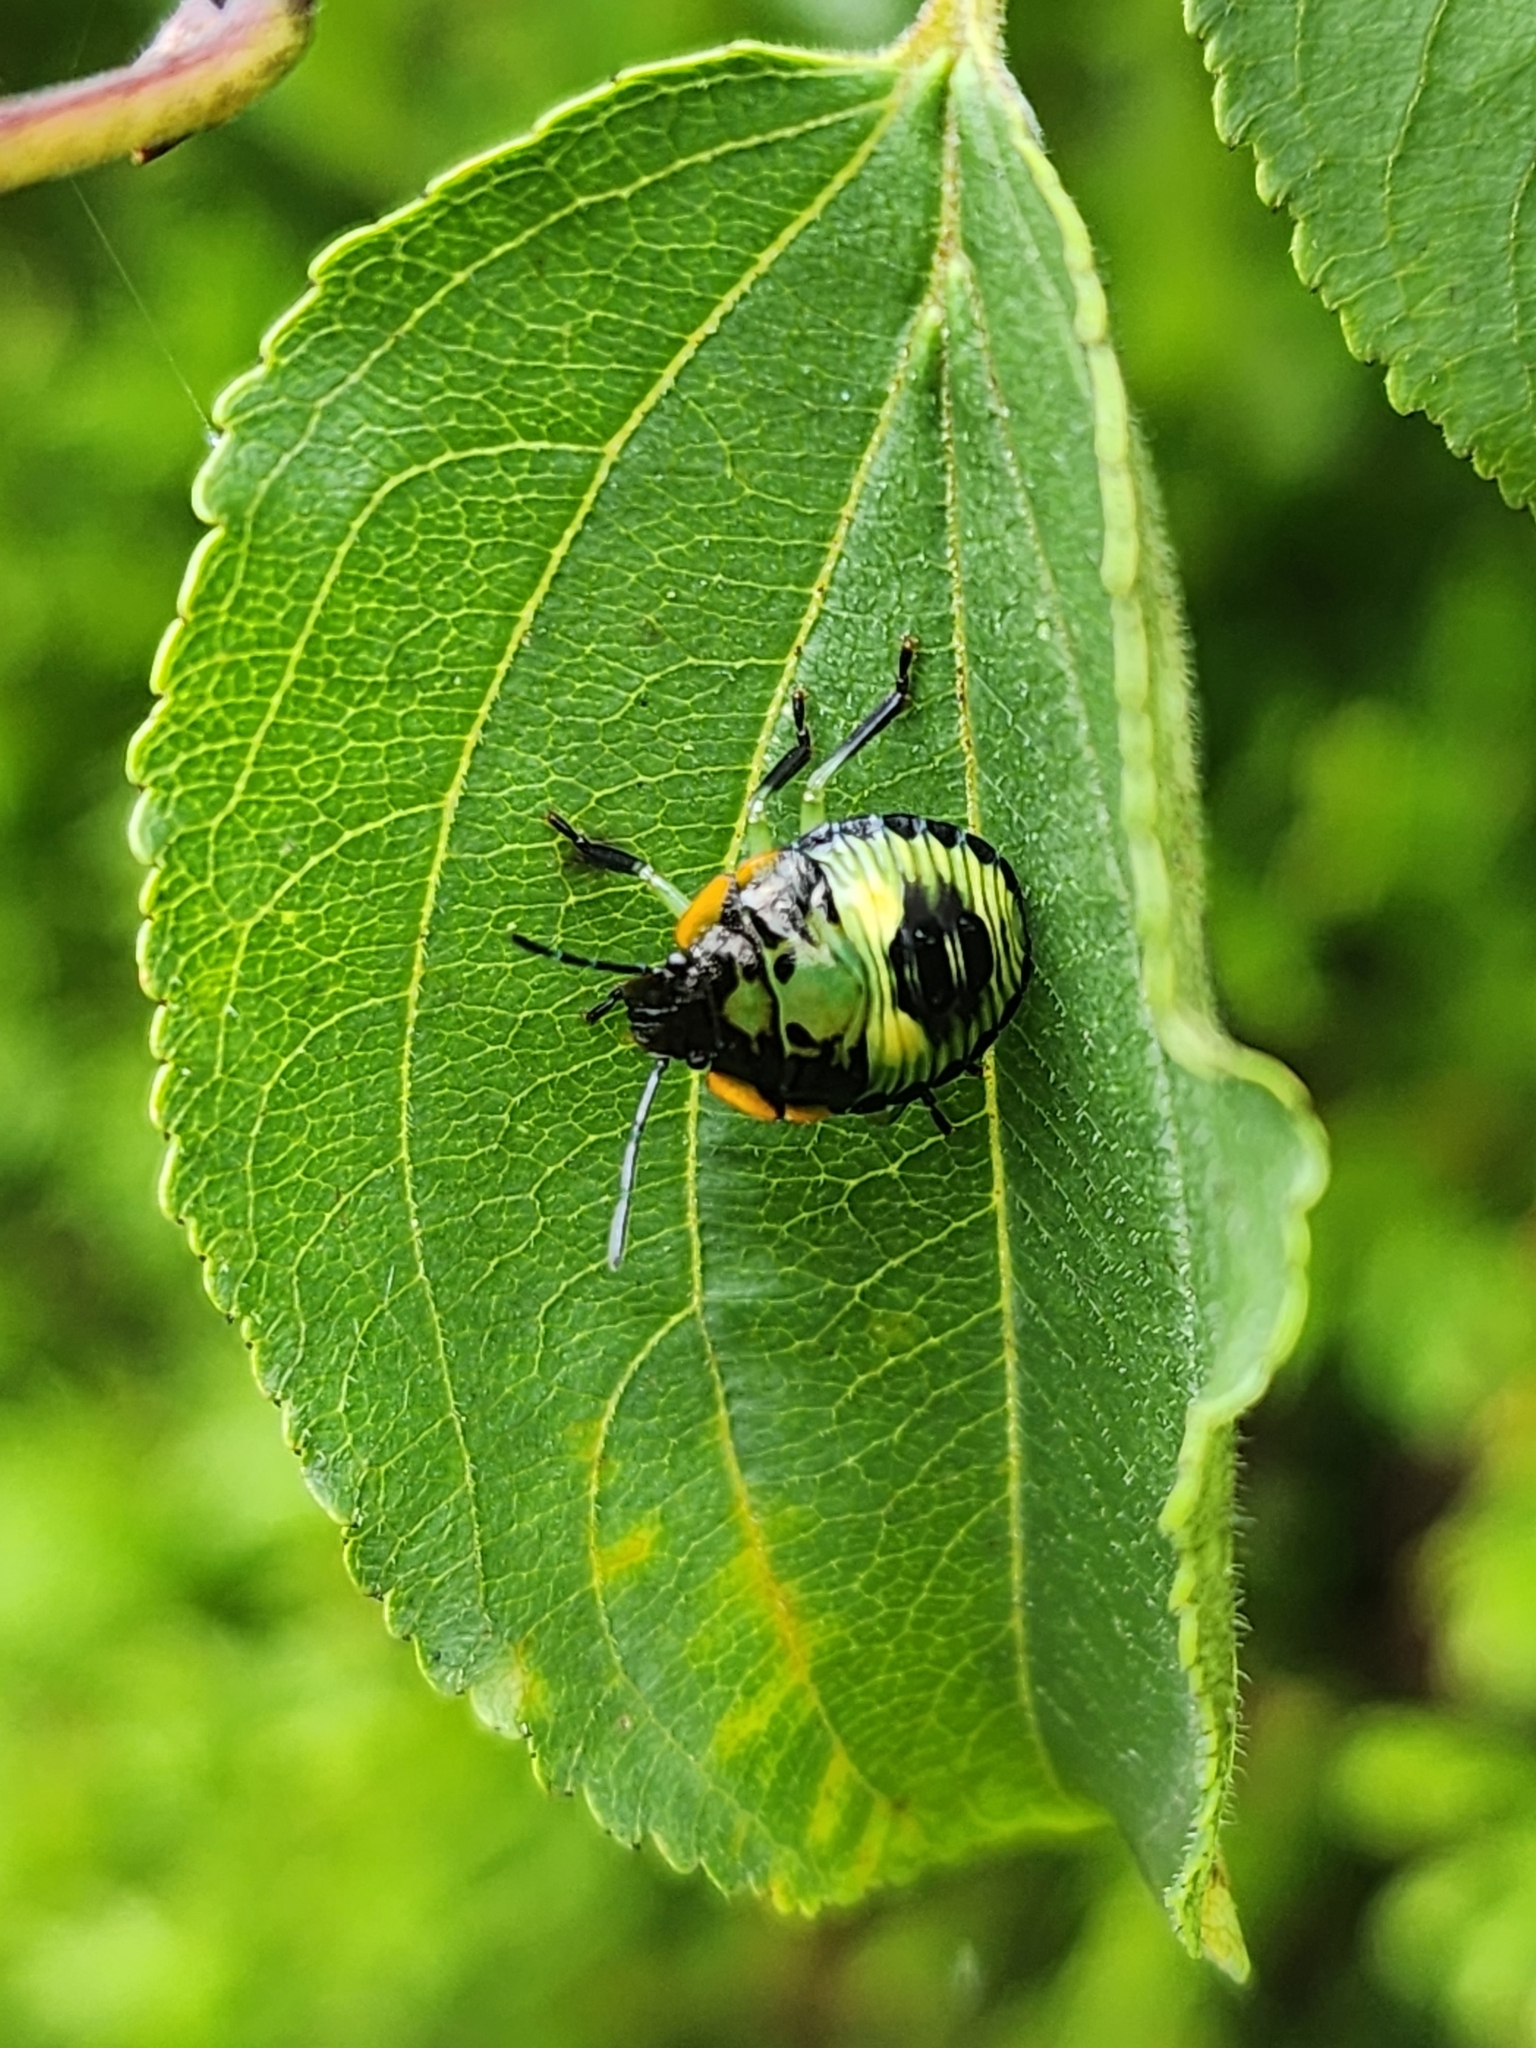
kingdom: Animalia
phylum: Arthropoda
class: Insecta
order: Hemiptera
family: Pentatomidae
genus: Chinavia
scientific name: Chinavia hilaris
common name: Green stink bug
